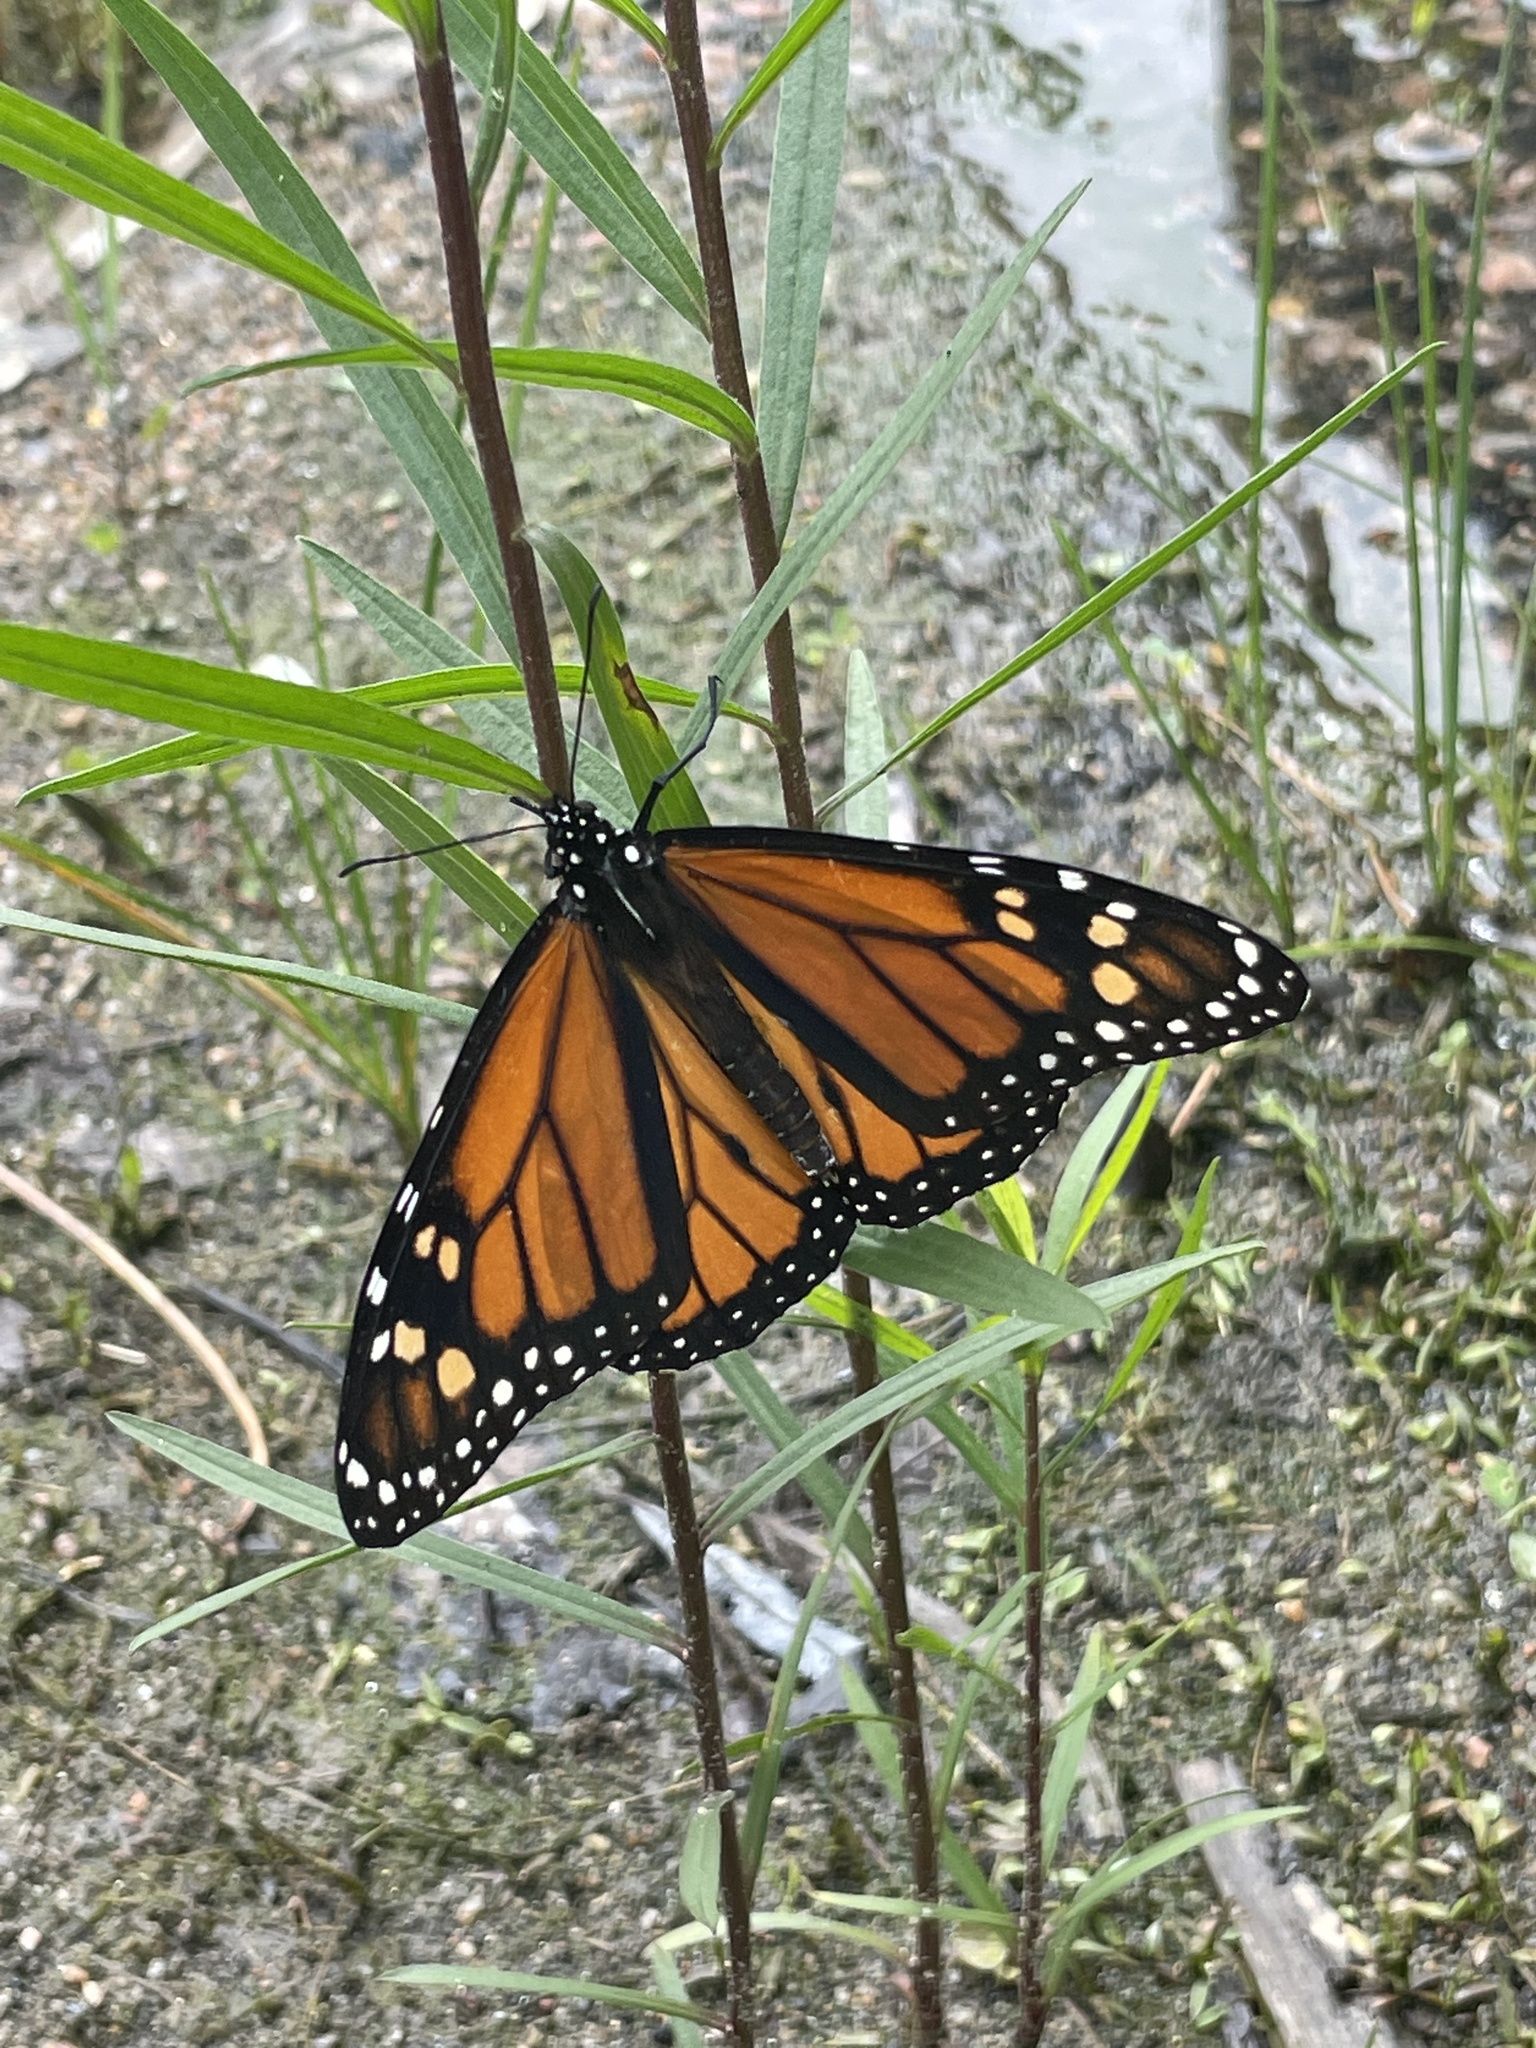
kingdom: Animalia
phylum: Arthropoda
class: Insecta
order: Lepidoptera
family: Nymphalidae
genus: Danaus
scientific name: Danaus plexippus
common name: Monarch
